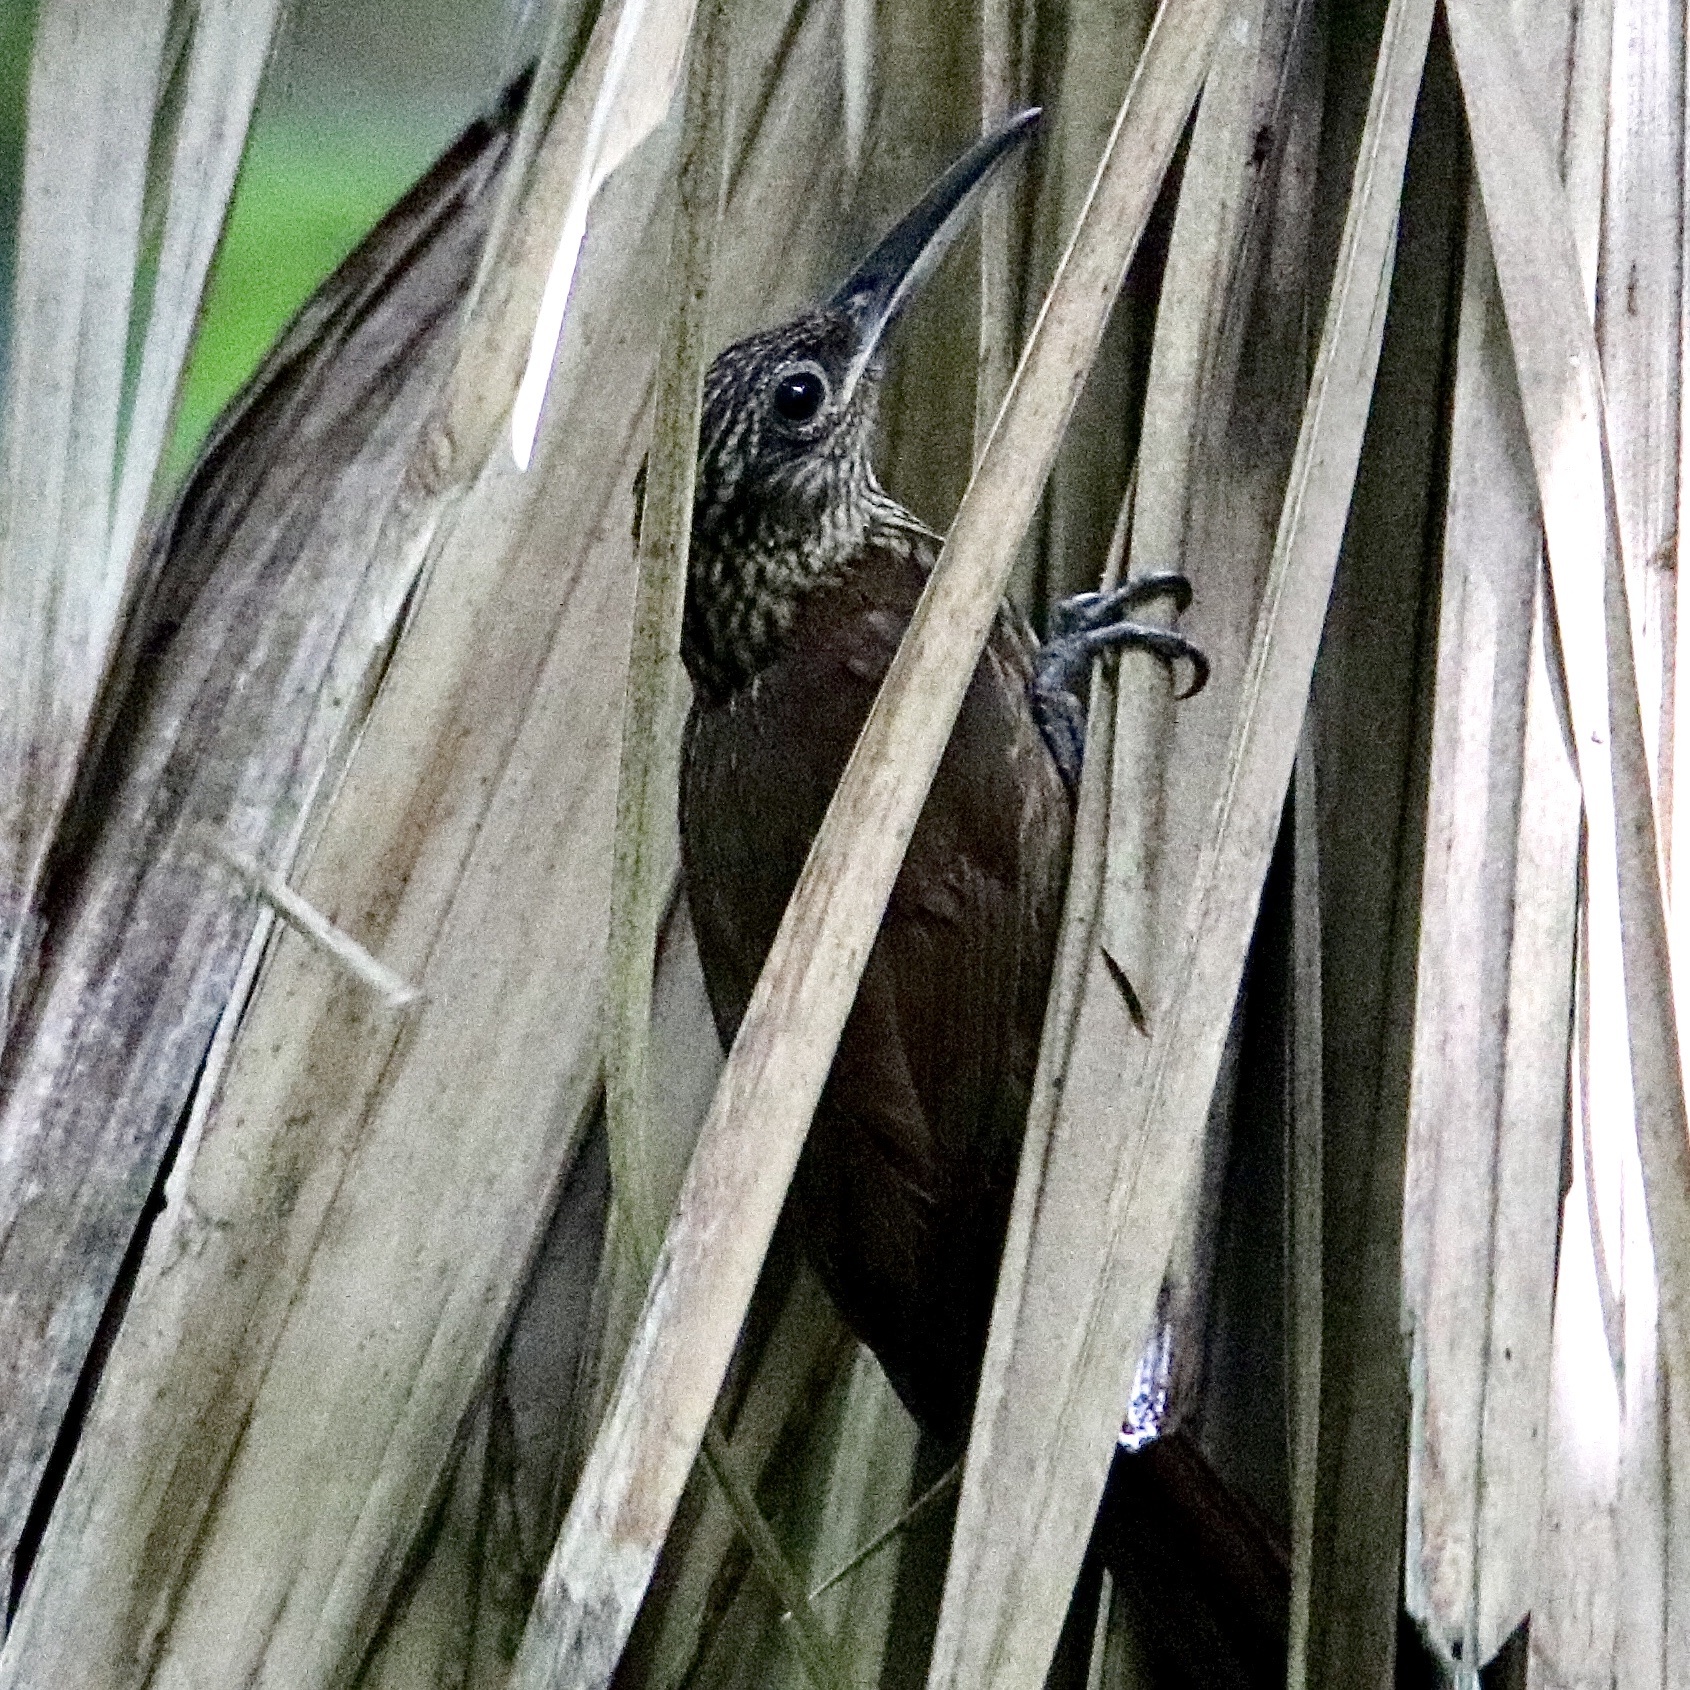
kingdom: Animalia
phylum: Chordata
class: Aves
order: Passeriformes
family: Furnariidae
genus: Xiphorhynchus
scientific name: Xiphorhynchus susurrans
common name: Cocoa woodcreeper
